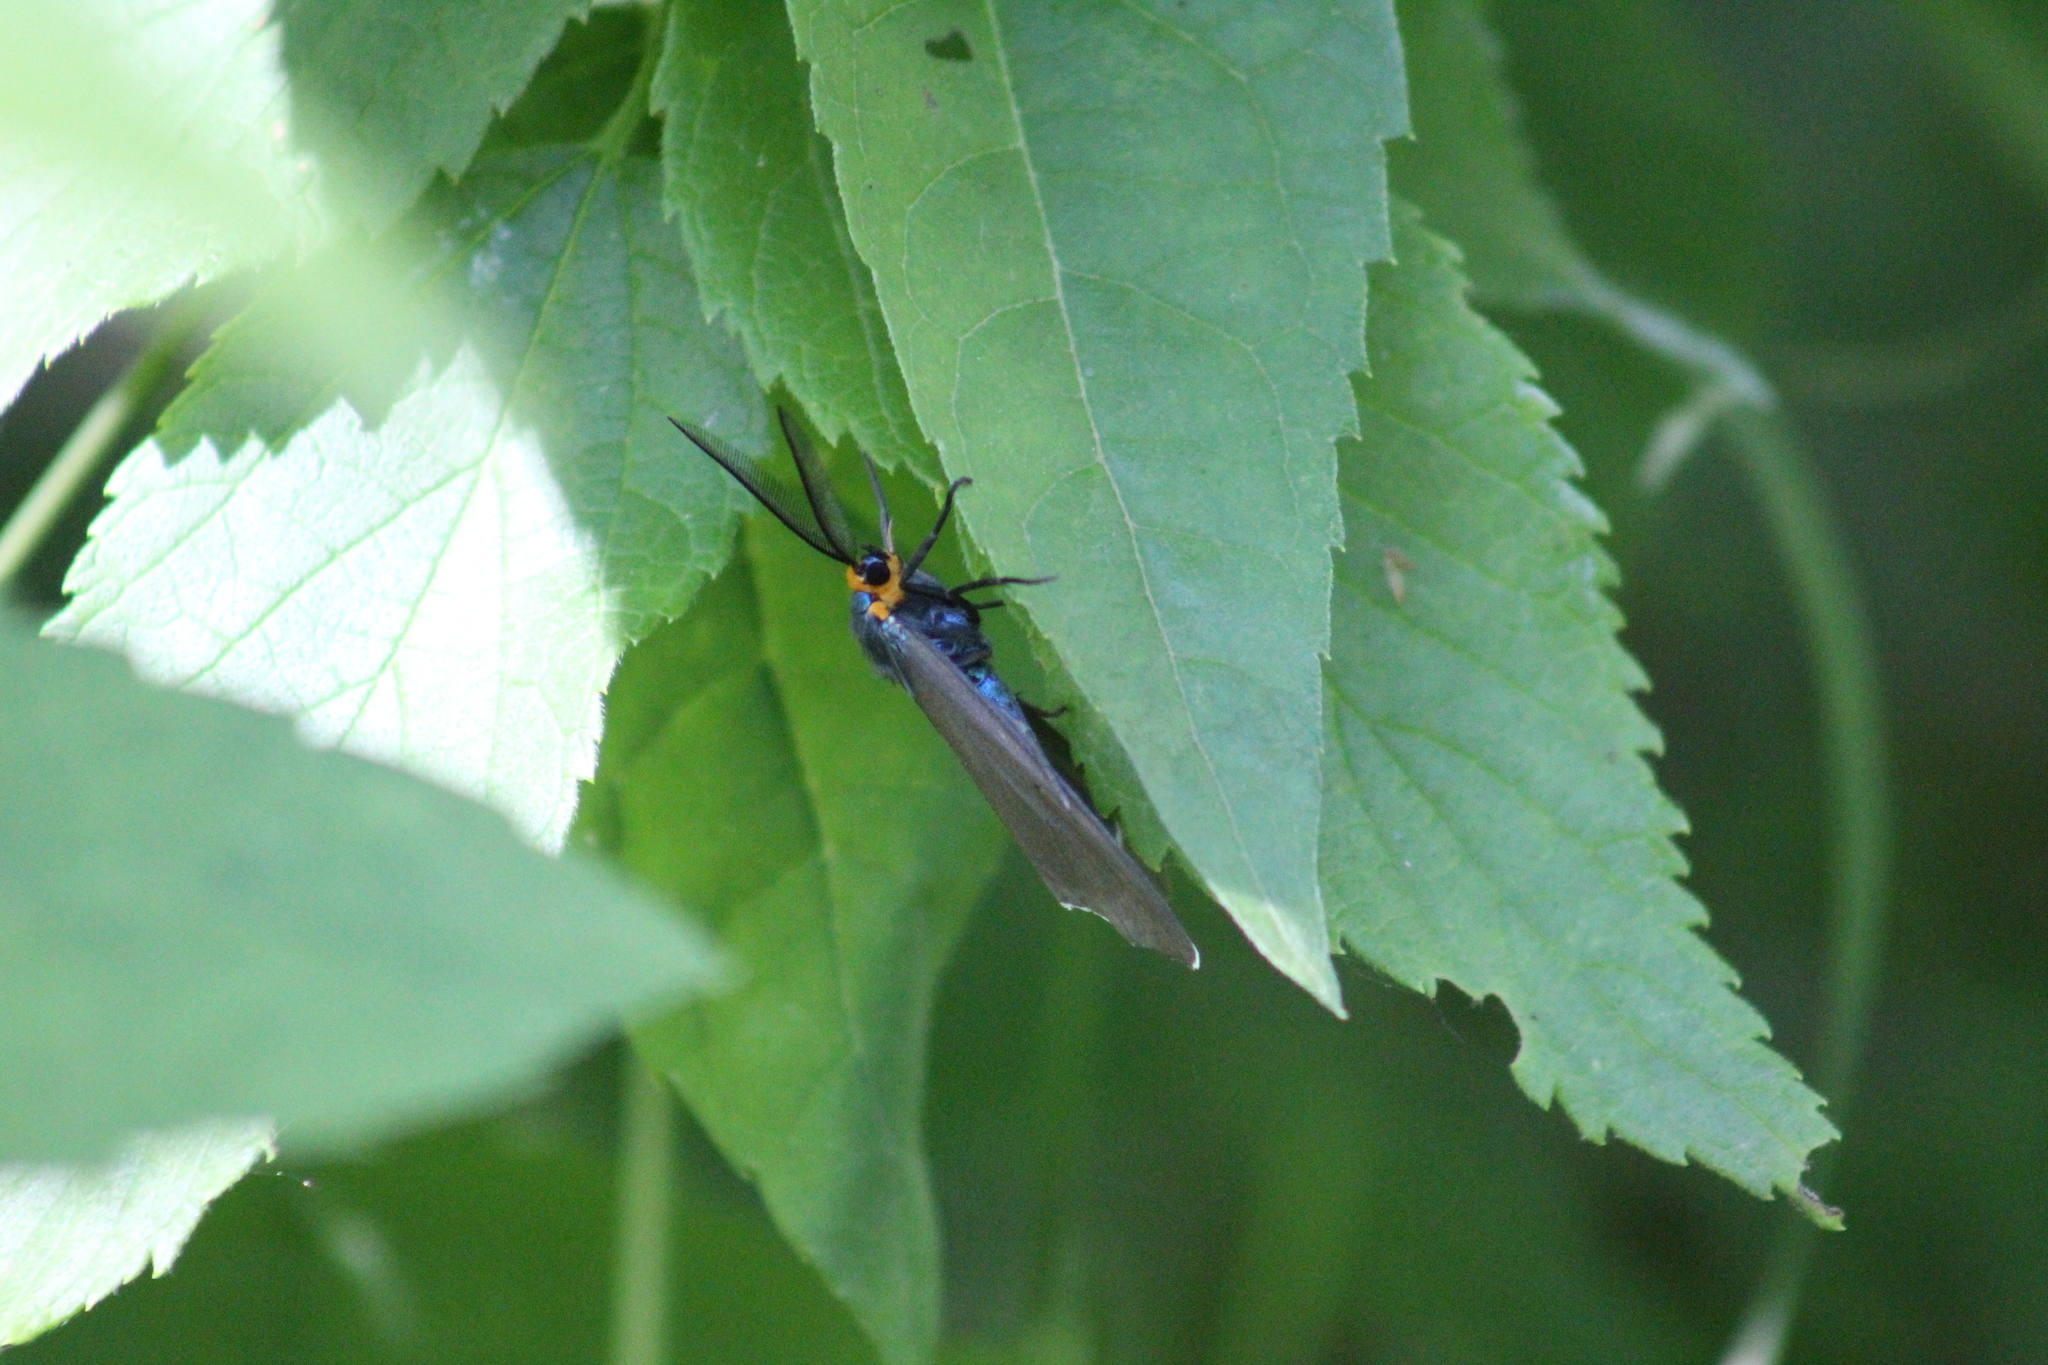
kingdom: Animalia
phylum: Arthropoda
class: Insecta
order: Lepidoptera
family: Erebidae
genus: Ctenucha
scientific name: Ctenucha virginica
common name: Virginia ctenucha moth
